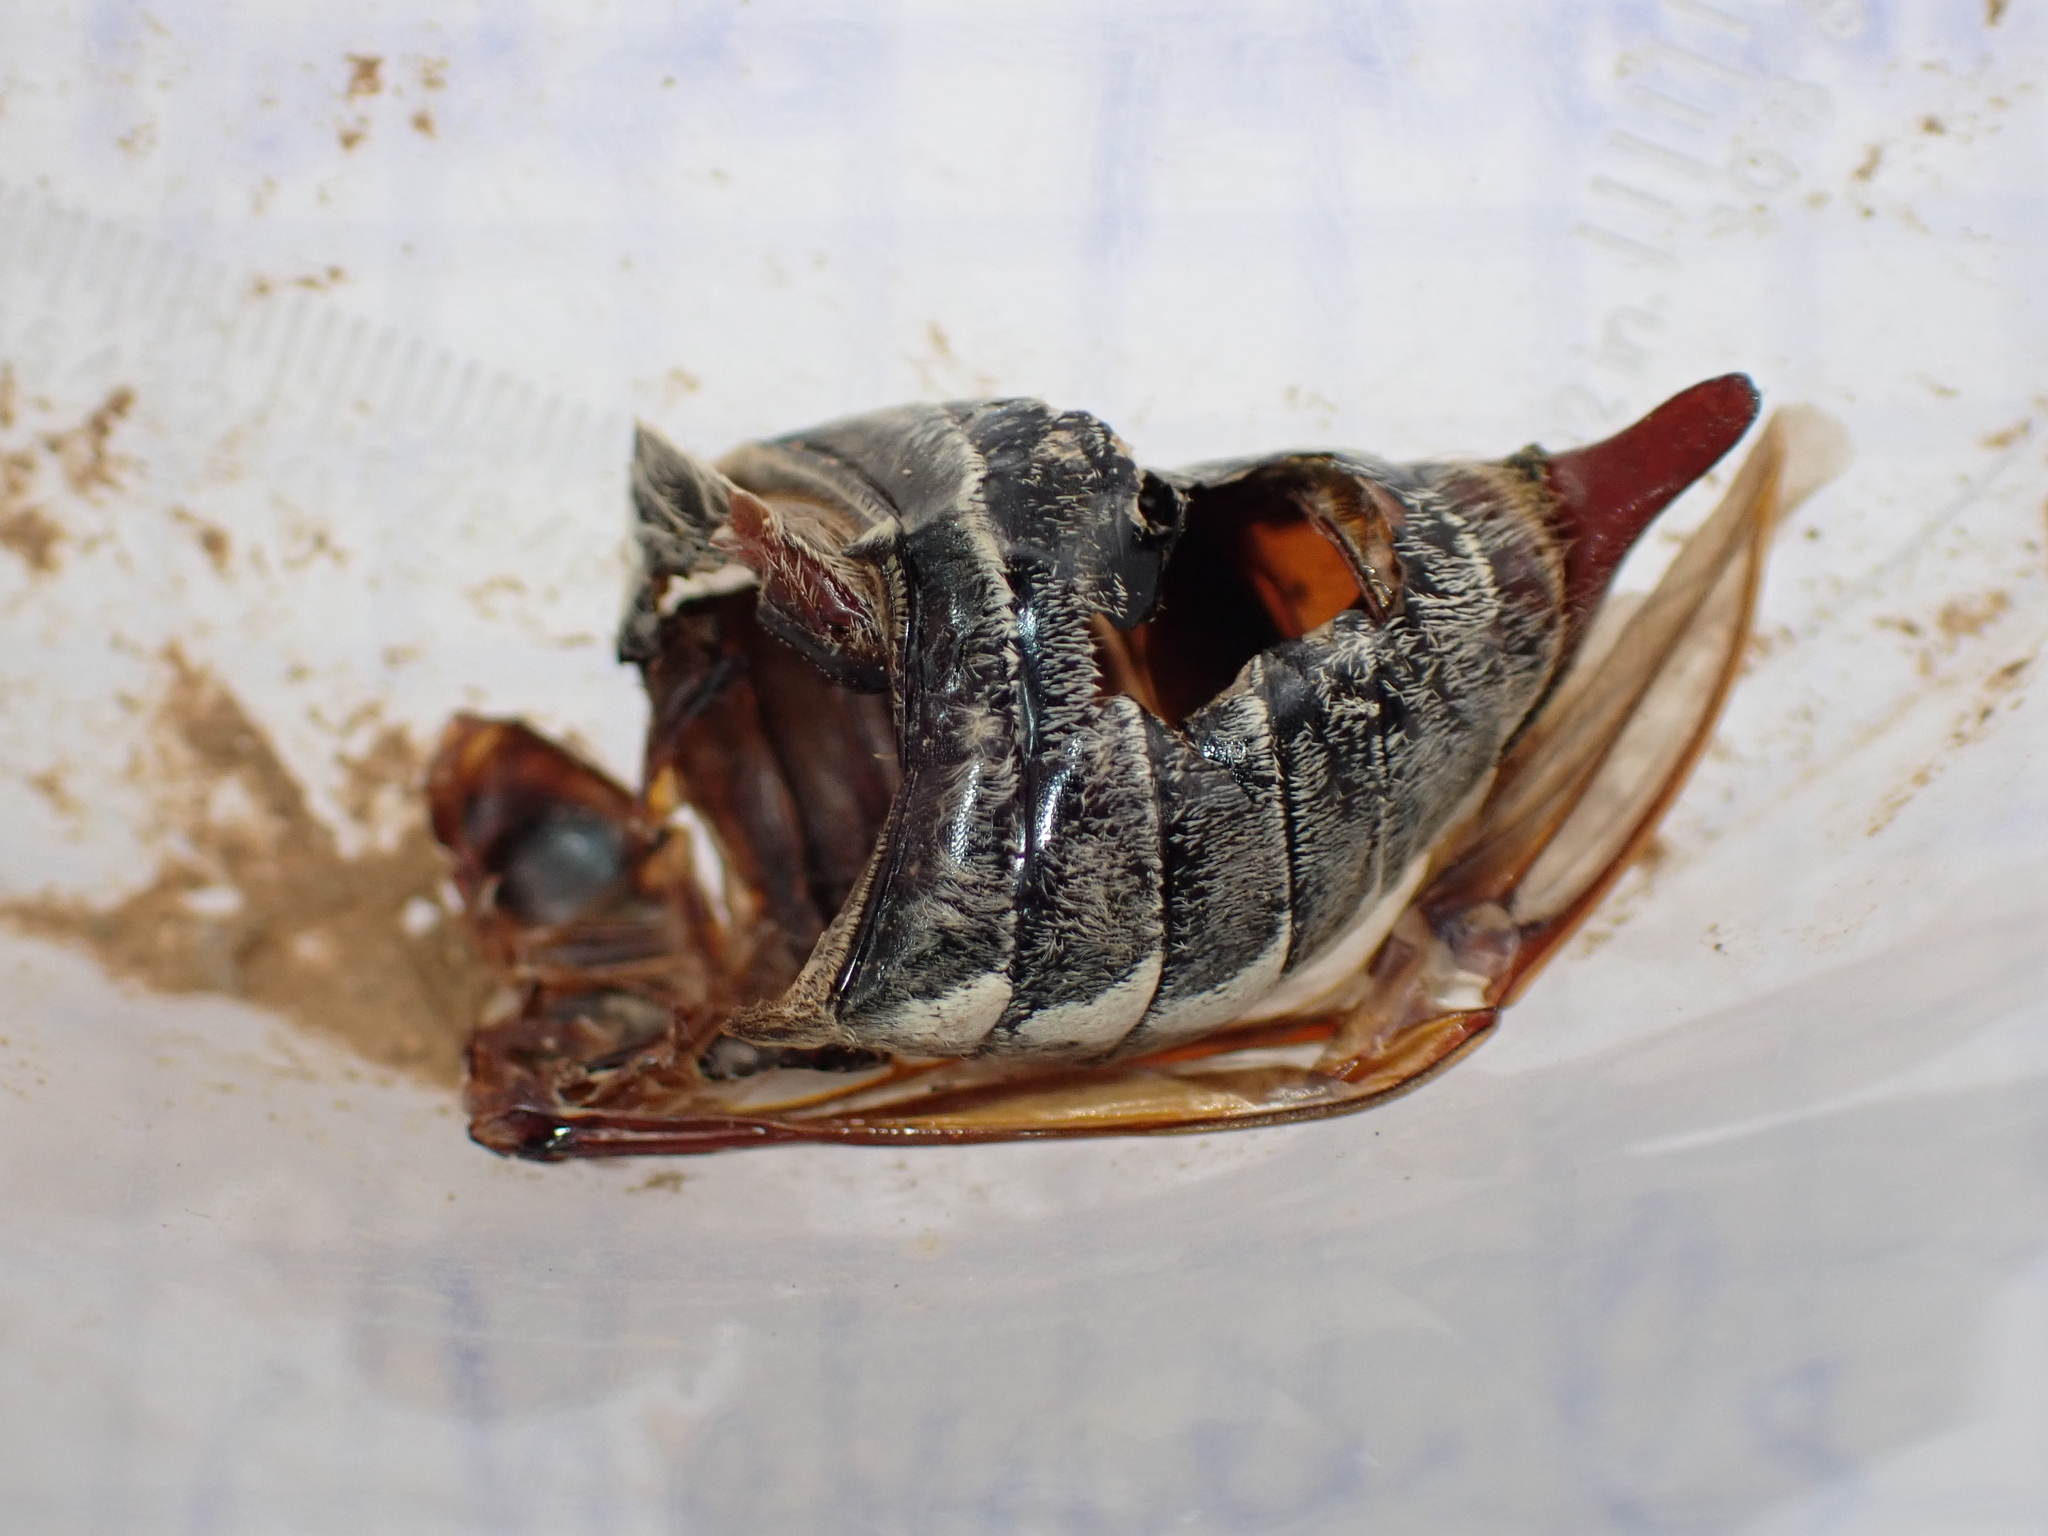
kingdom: Animalia
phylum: Arthropoda
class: Insecta
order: Coleoptera
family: Scarabaeidae
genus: Melolontha
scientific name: Melolontha melolontha
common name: Cockchafer maybeetle
